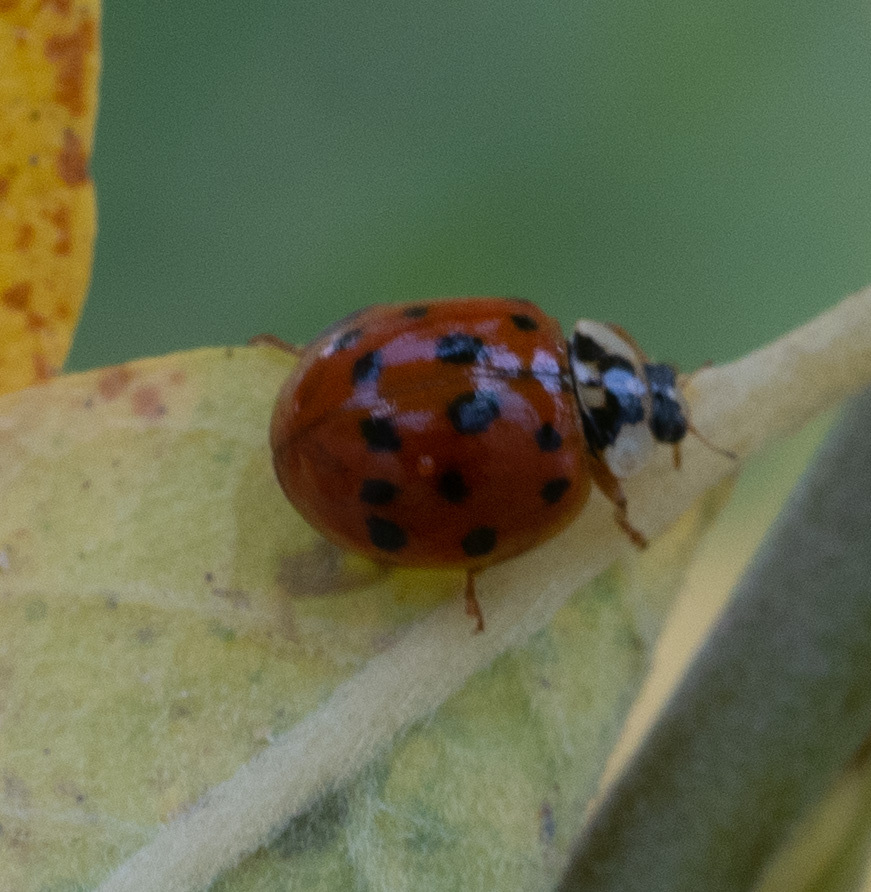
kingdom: Animalia
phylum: Arthropoda
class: Insecta
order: Coleoptera
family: Coccinellidae
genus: Harmonia
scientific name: Harmonia axyridis
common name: Harlequin ladybird
